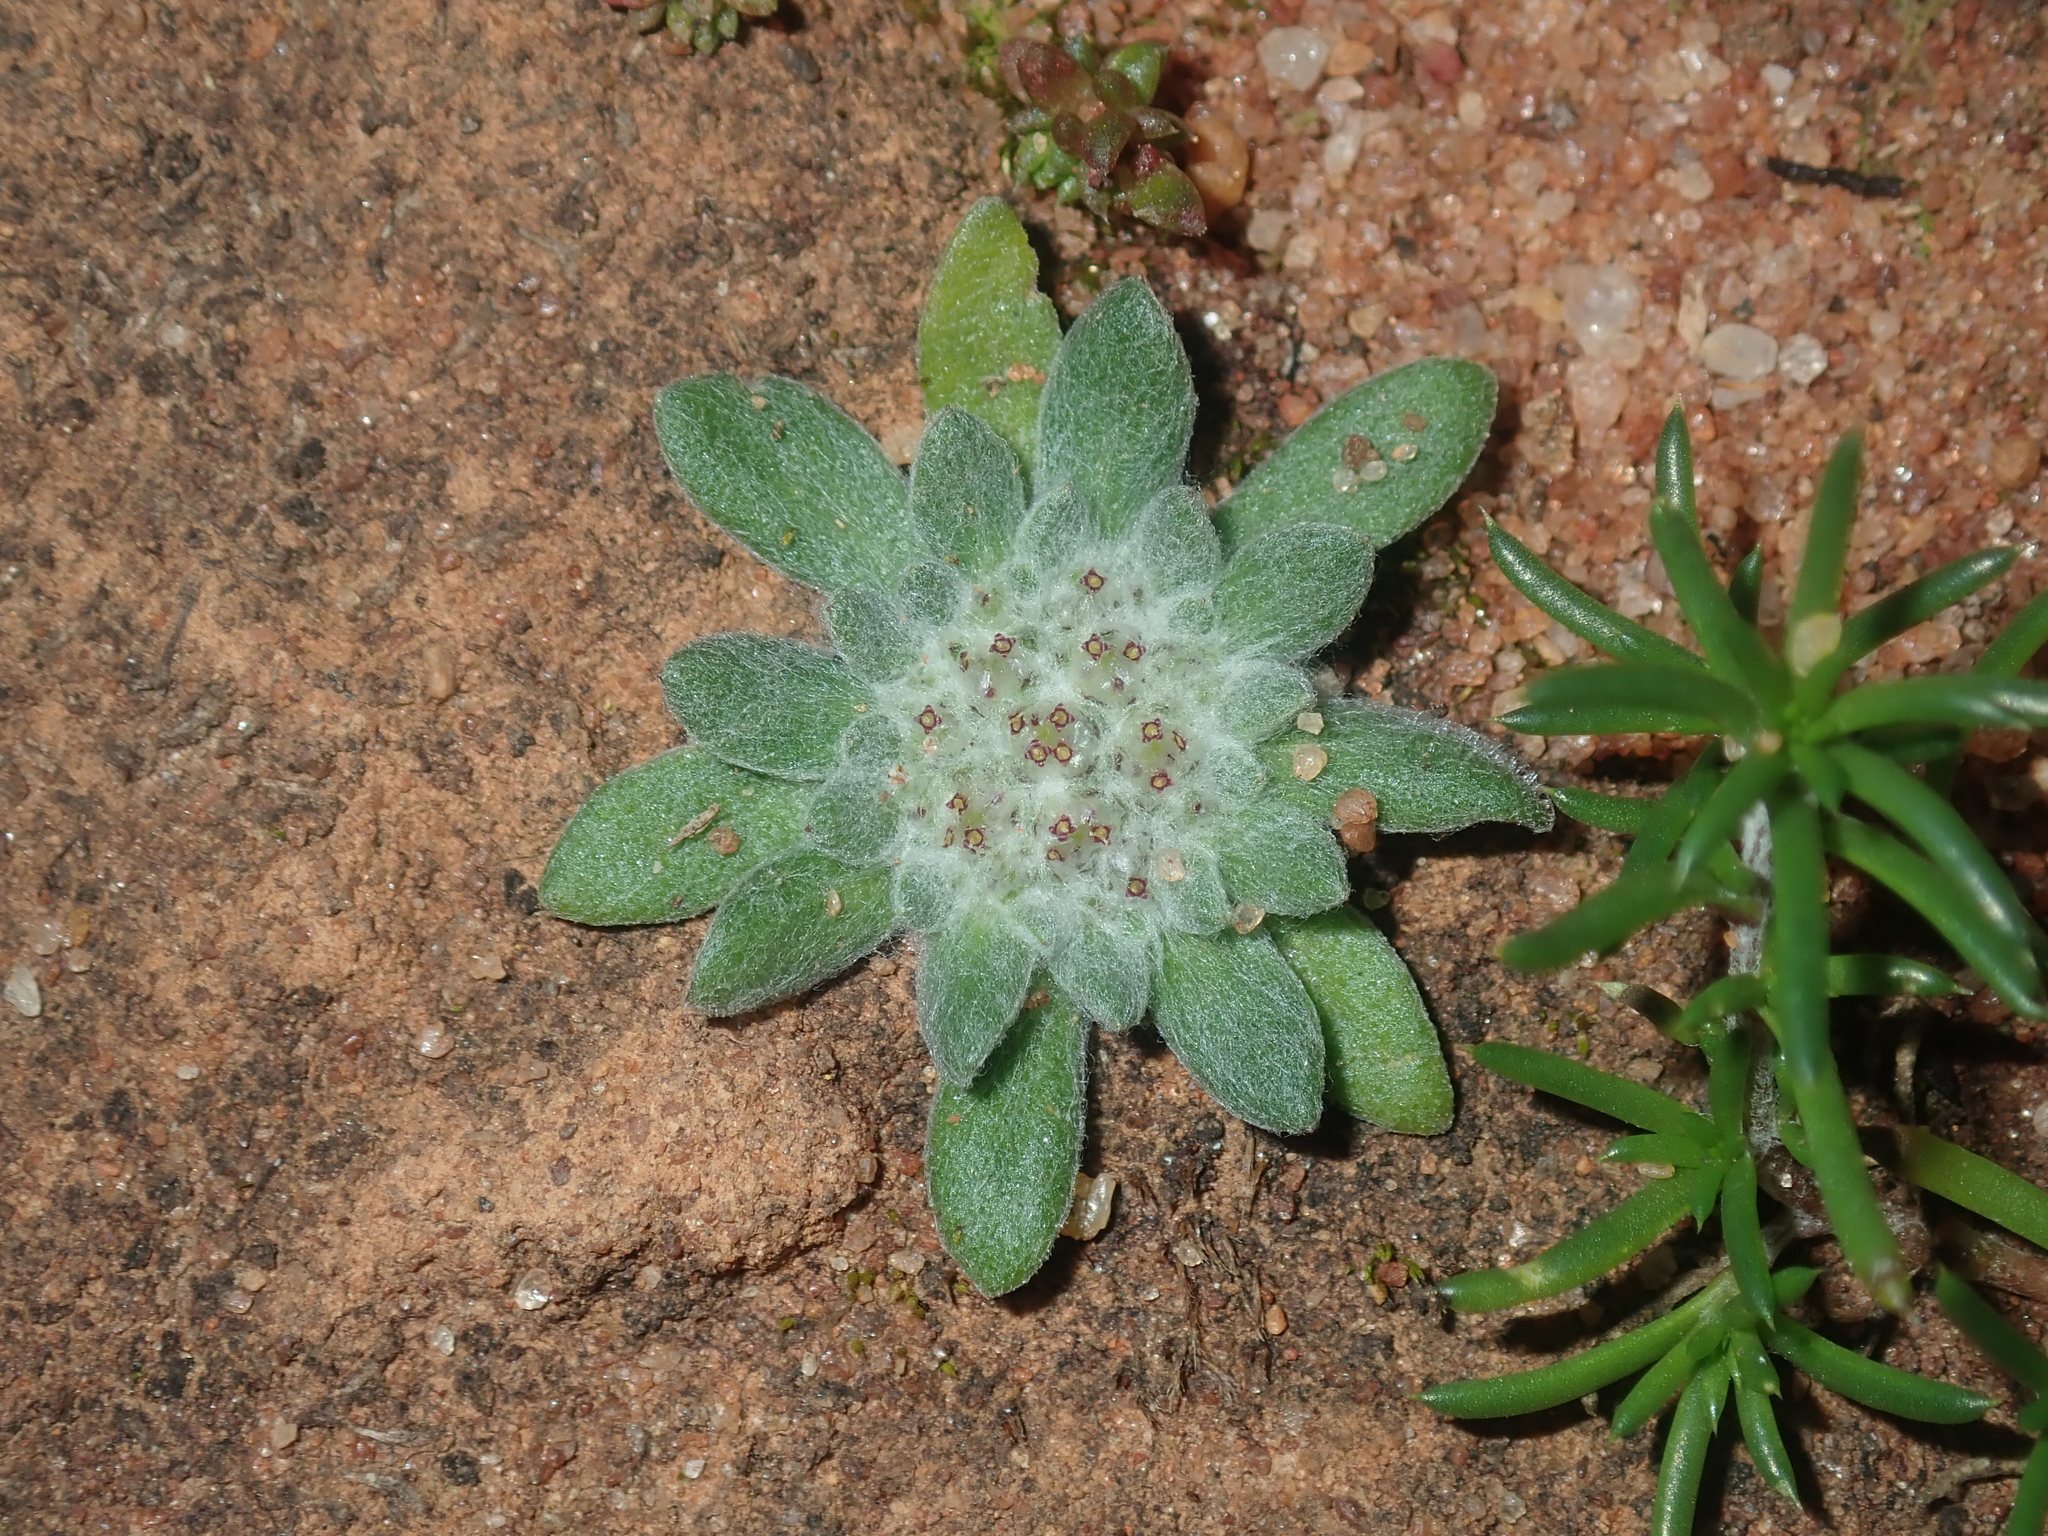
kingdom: Plantae
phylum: Tracheophyta
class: Magnoliopsida
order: Asterales
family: Asteraceae
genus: Chthonocephalus
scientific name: Chthonocephalus pseudevax
